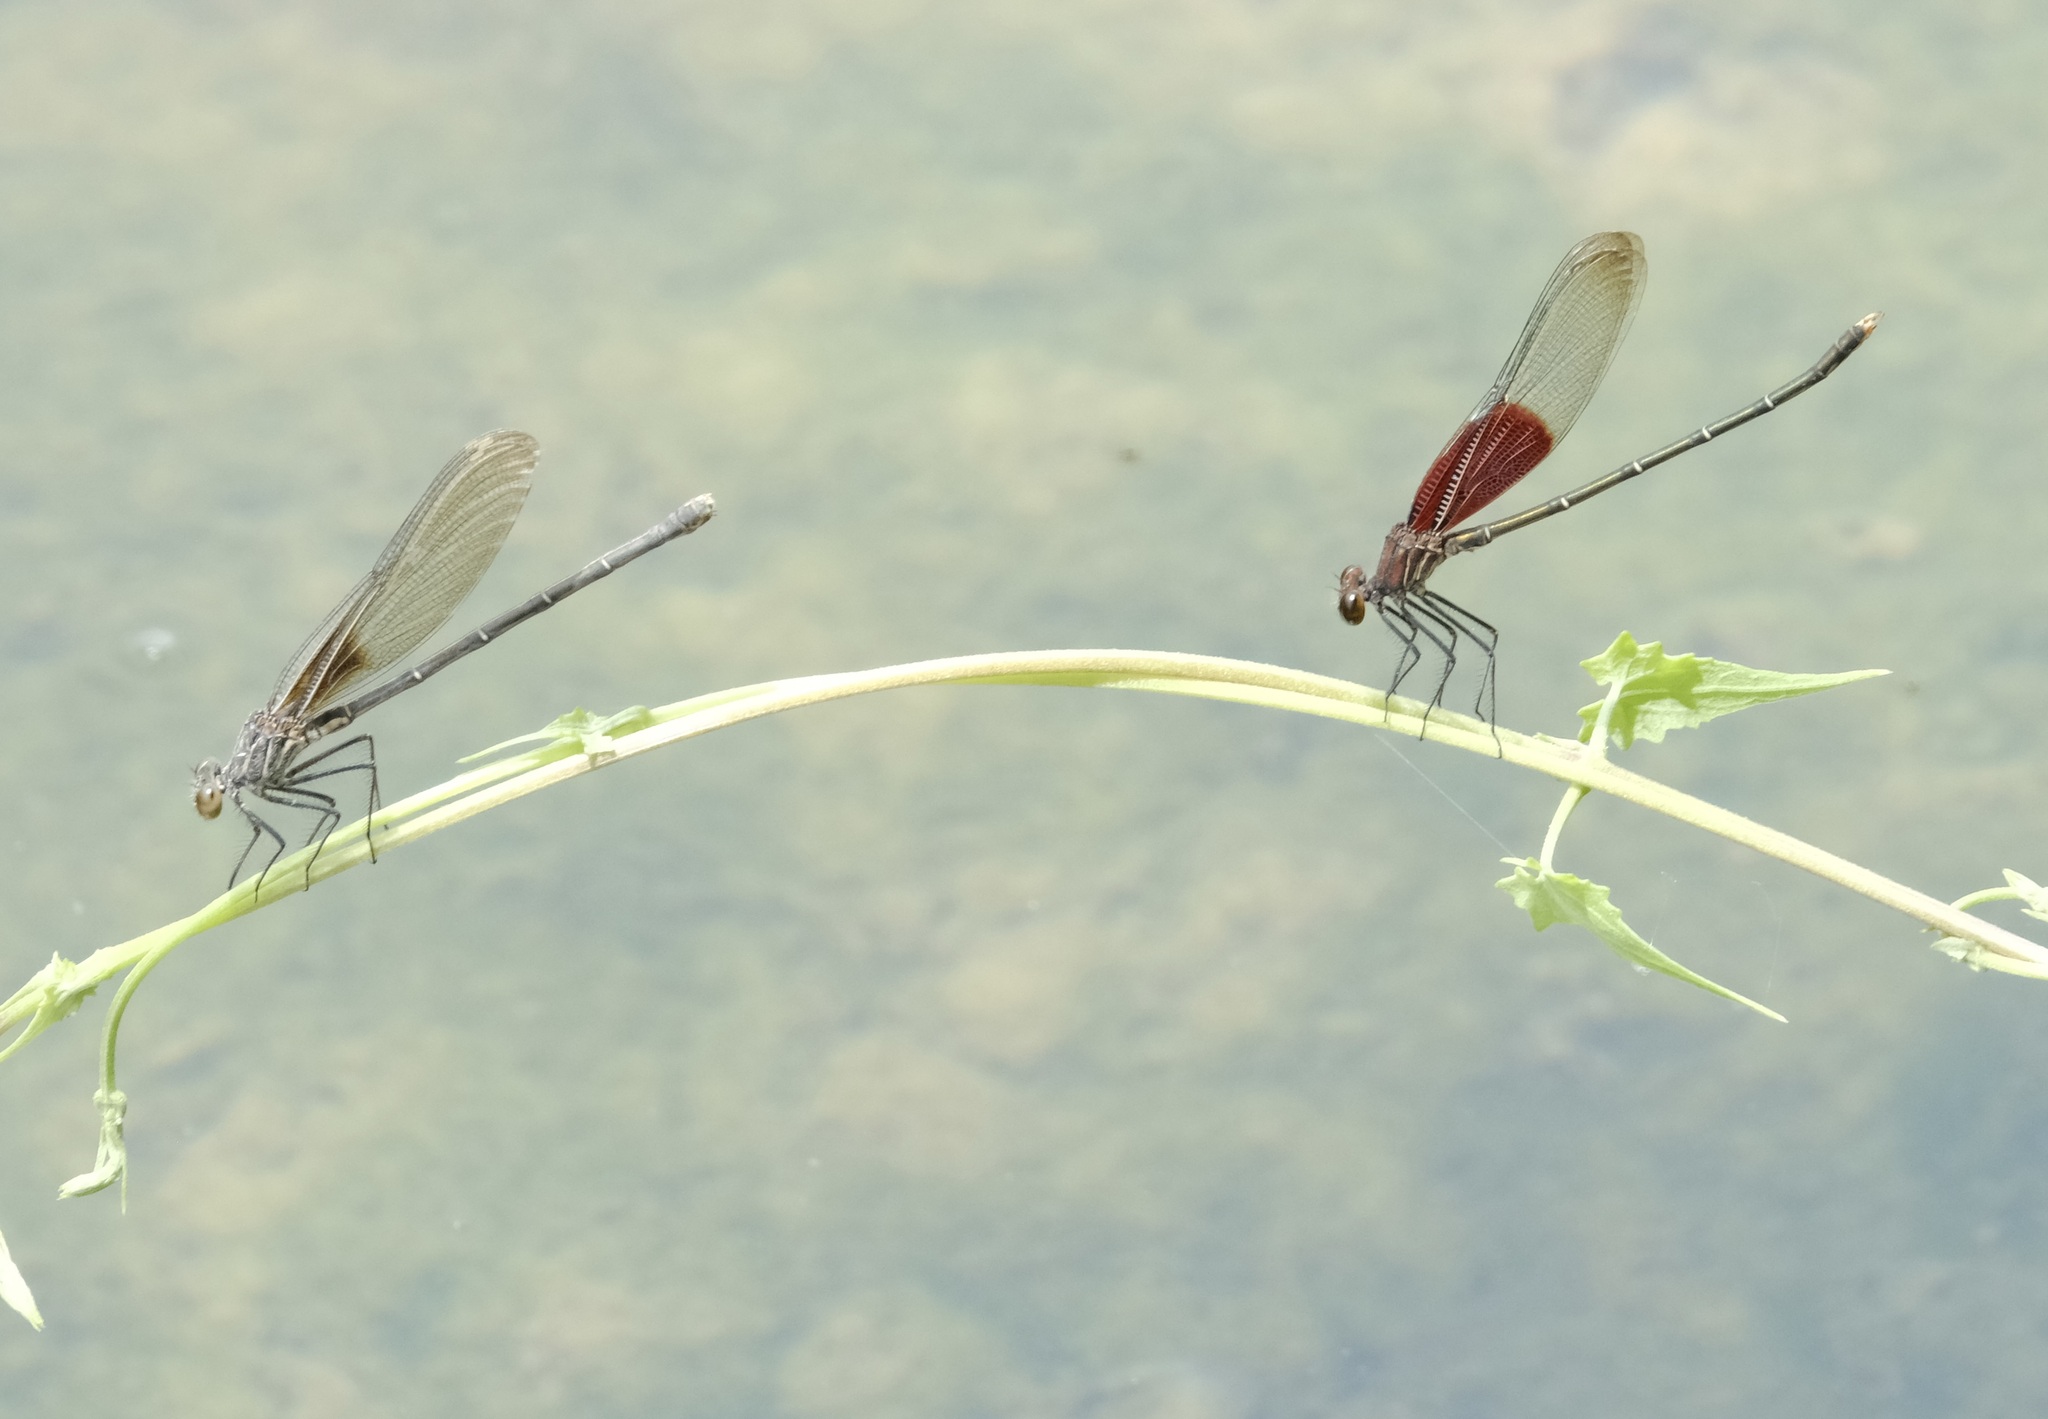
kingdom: Animalia
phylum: Arthropoda
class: Insecta
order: Odonata
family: Calopterygidae
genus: Hetaerina
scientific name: Hetaerina americana
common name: American rubyspot
